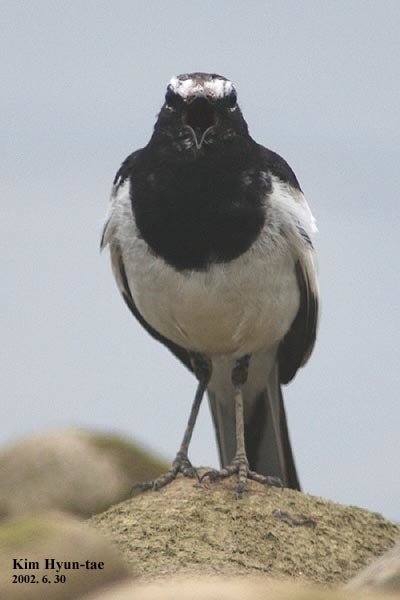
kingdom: Animalia
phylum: Chordata
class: Aves
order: Passeriformes
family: Motacillidae
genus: Motacilla
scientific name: Motacilla grandis
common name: Japanese wagtail
